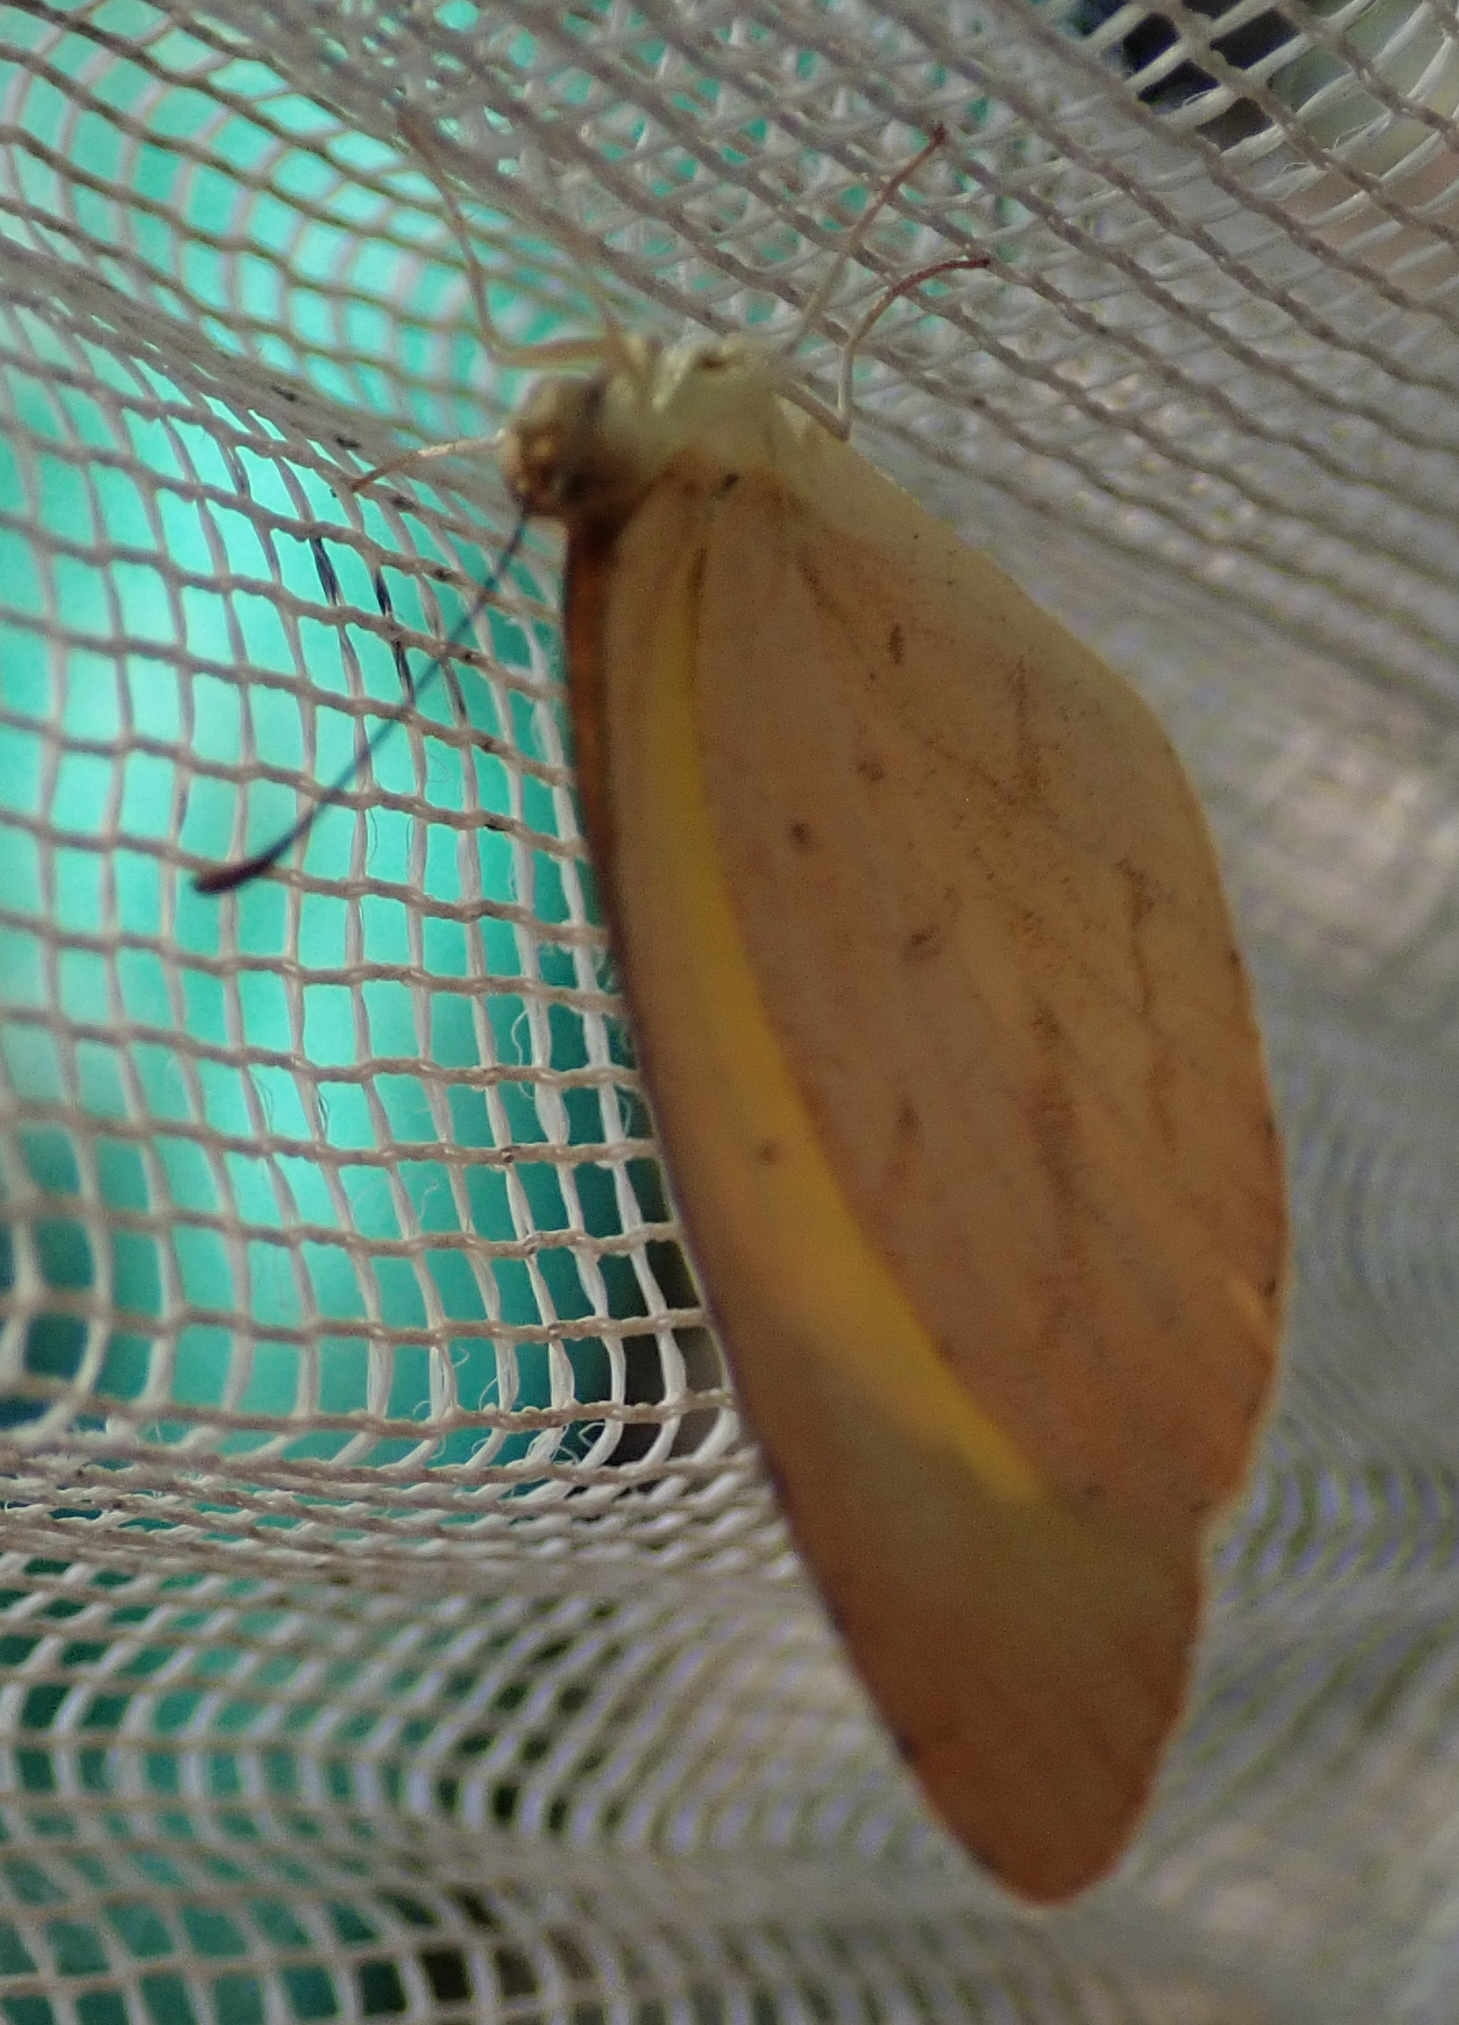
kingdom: Animalia
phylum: Arthropoda
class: Insecta
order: Lepidoptera
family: Pieridae
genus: Eurema
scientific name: Eurema brigitta
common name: Small grass yellow
